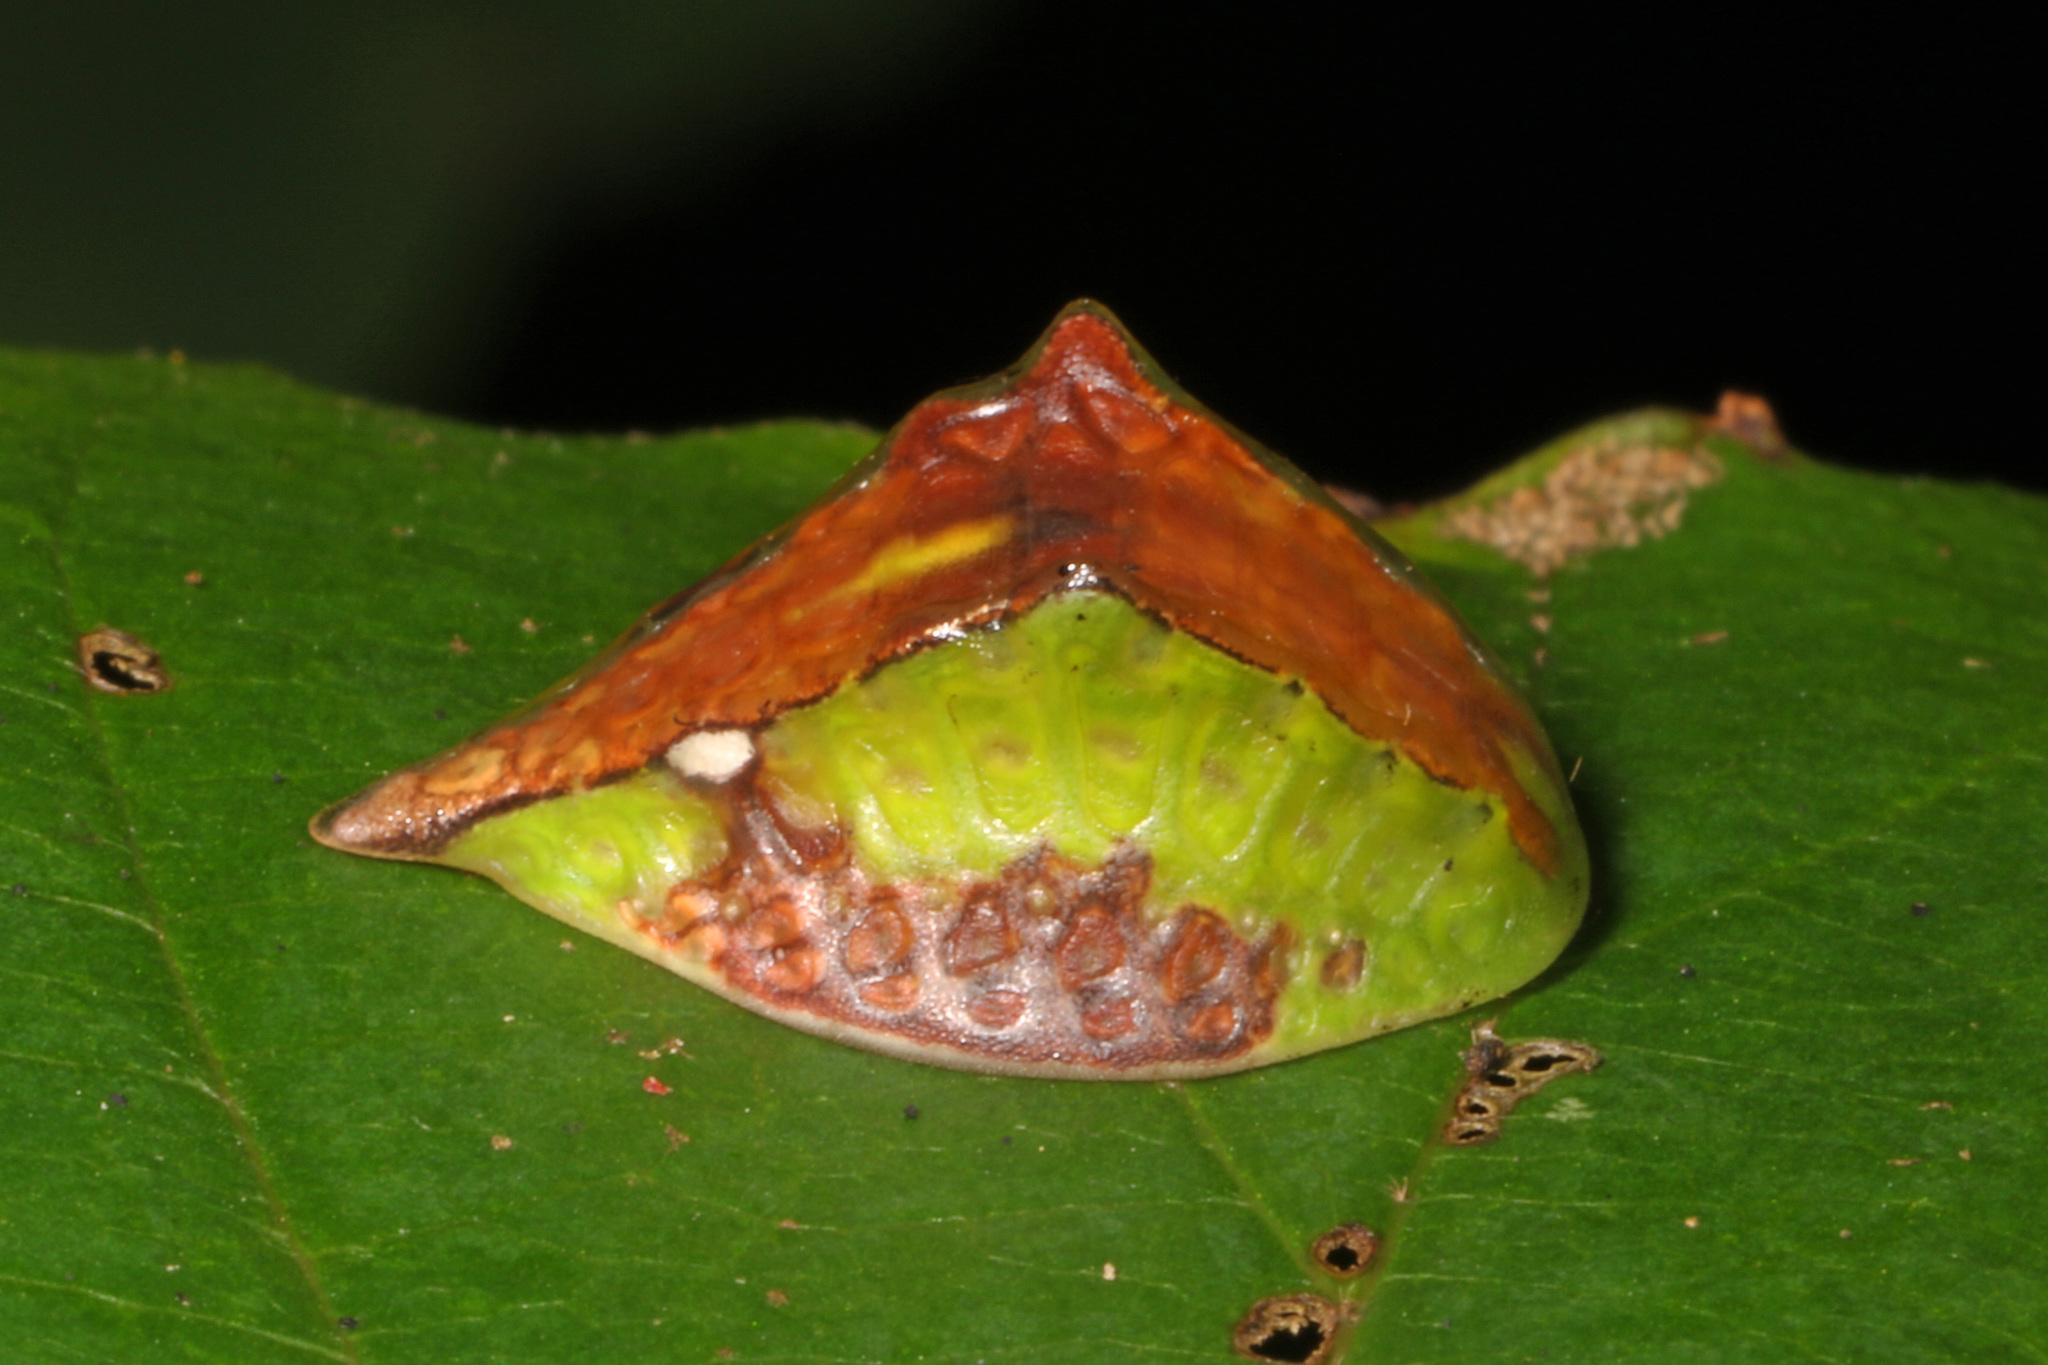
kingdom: Animalia
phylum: Arthropoda
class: Insecta
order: Lepidoptera
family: Limacodidae
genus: Prolimacodes
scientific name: Prolimacodes badia
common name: Skiff moth
